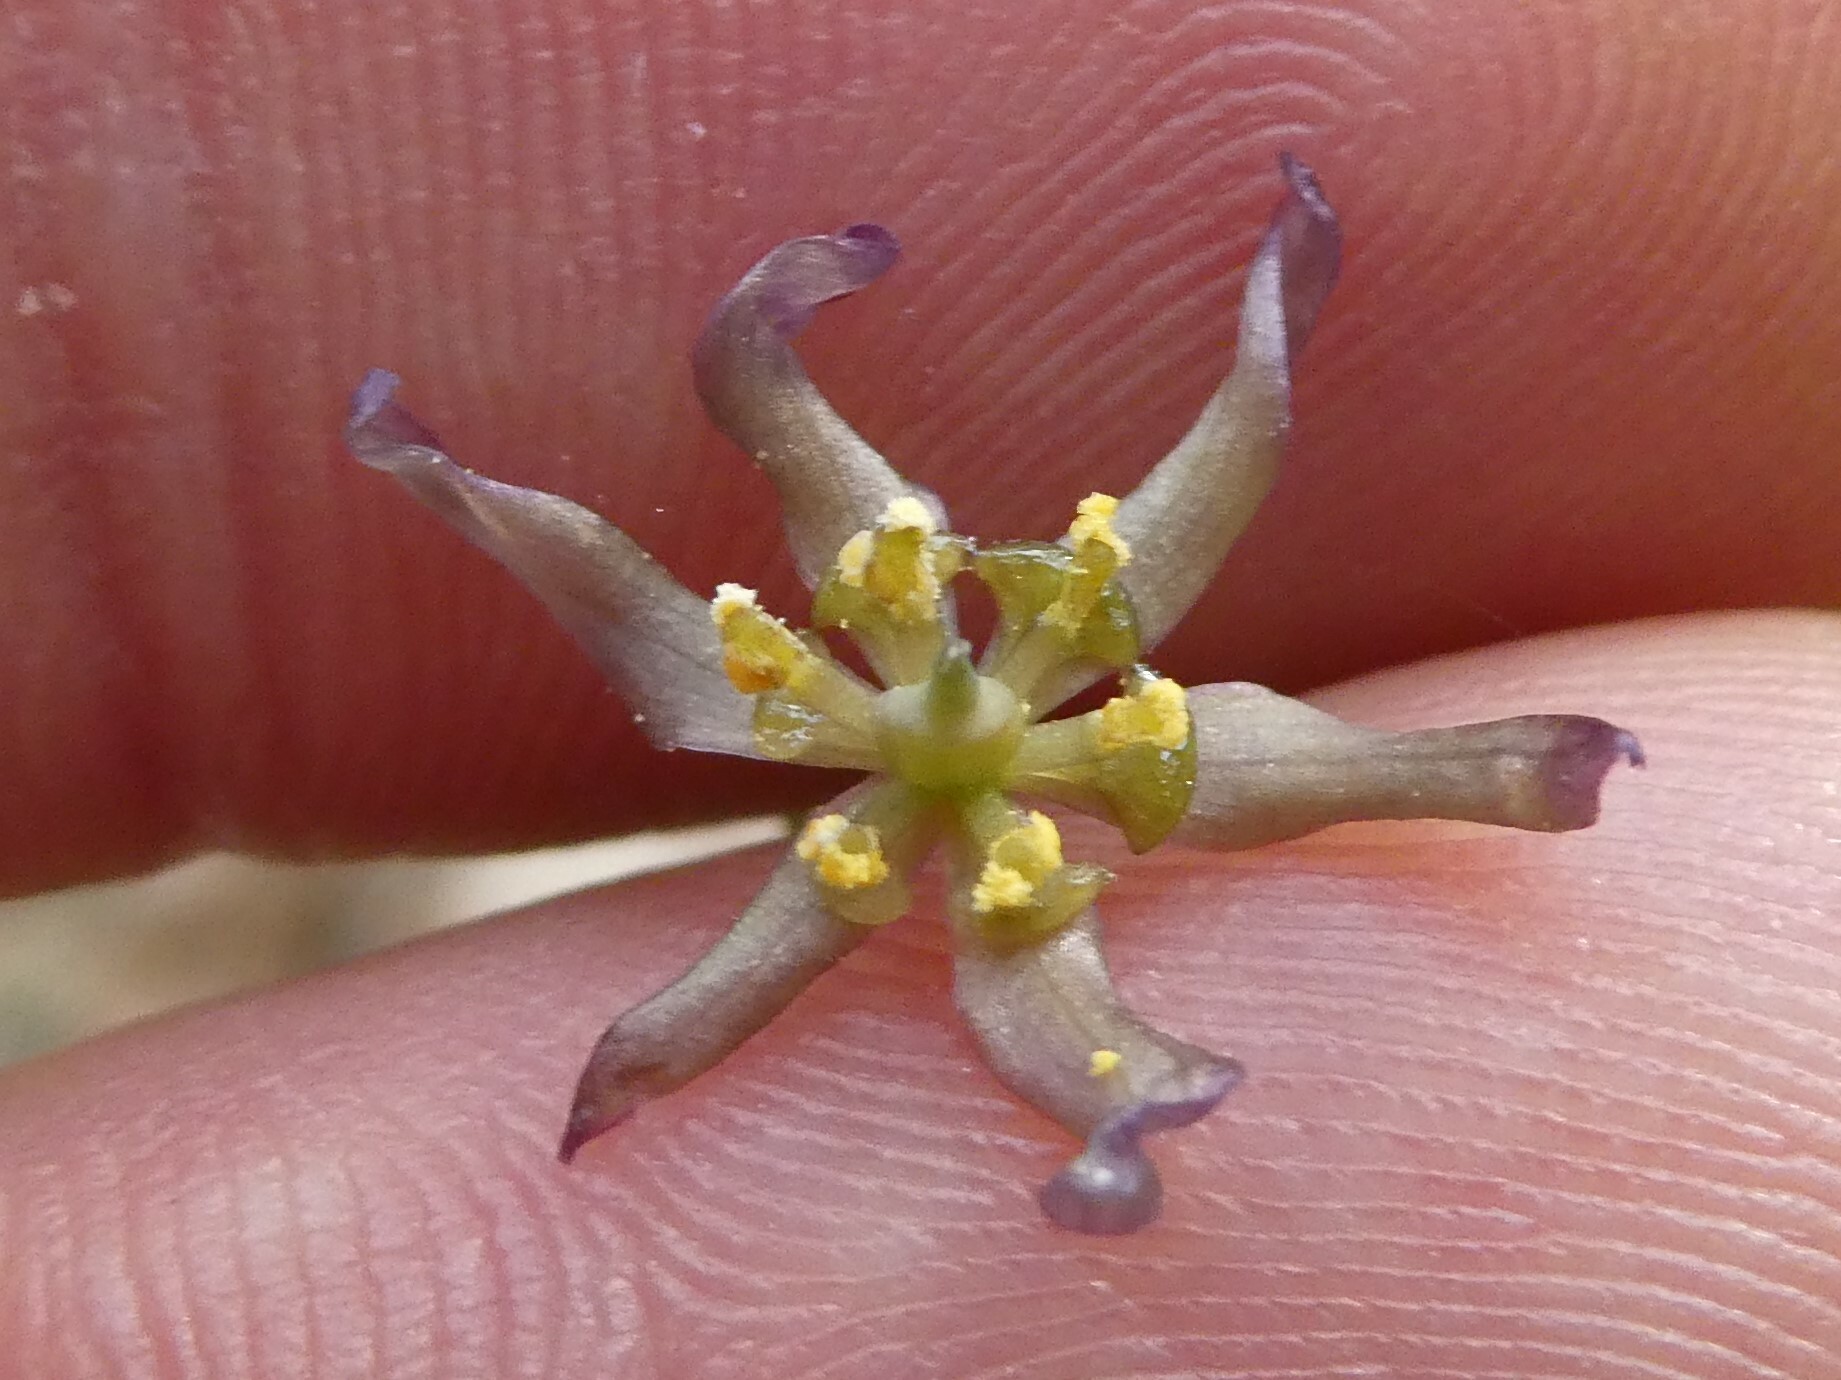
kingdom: Plantae
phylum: Tracheophyta
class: Magnoliopsida
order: Ranunculales
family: Berberidaceae
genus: Caulophyllum
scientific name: Caulophyllum
